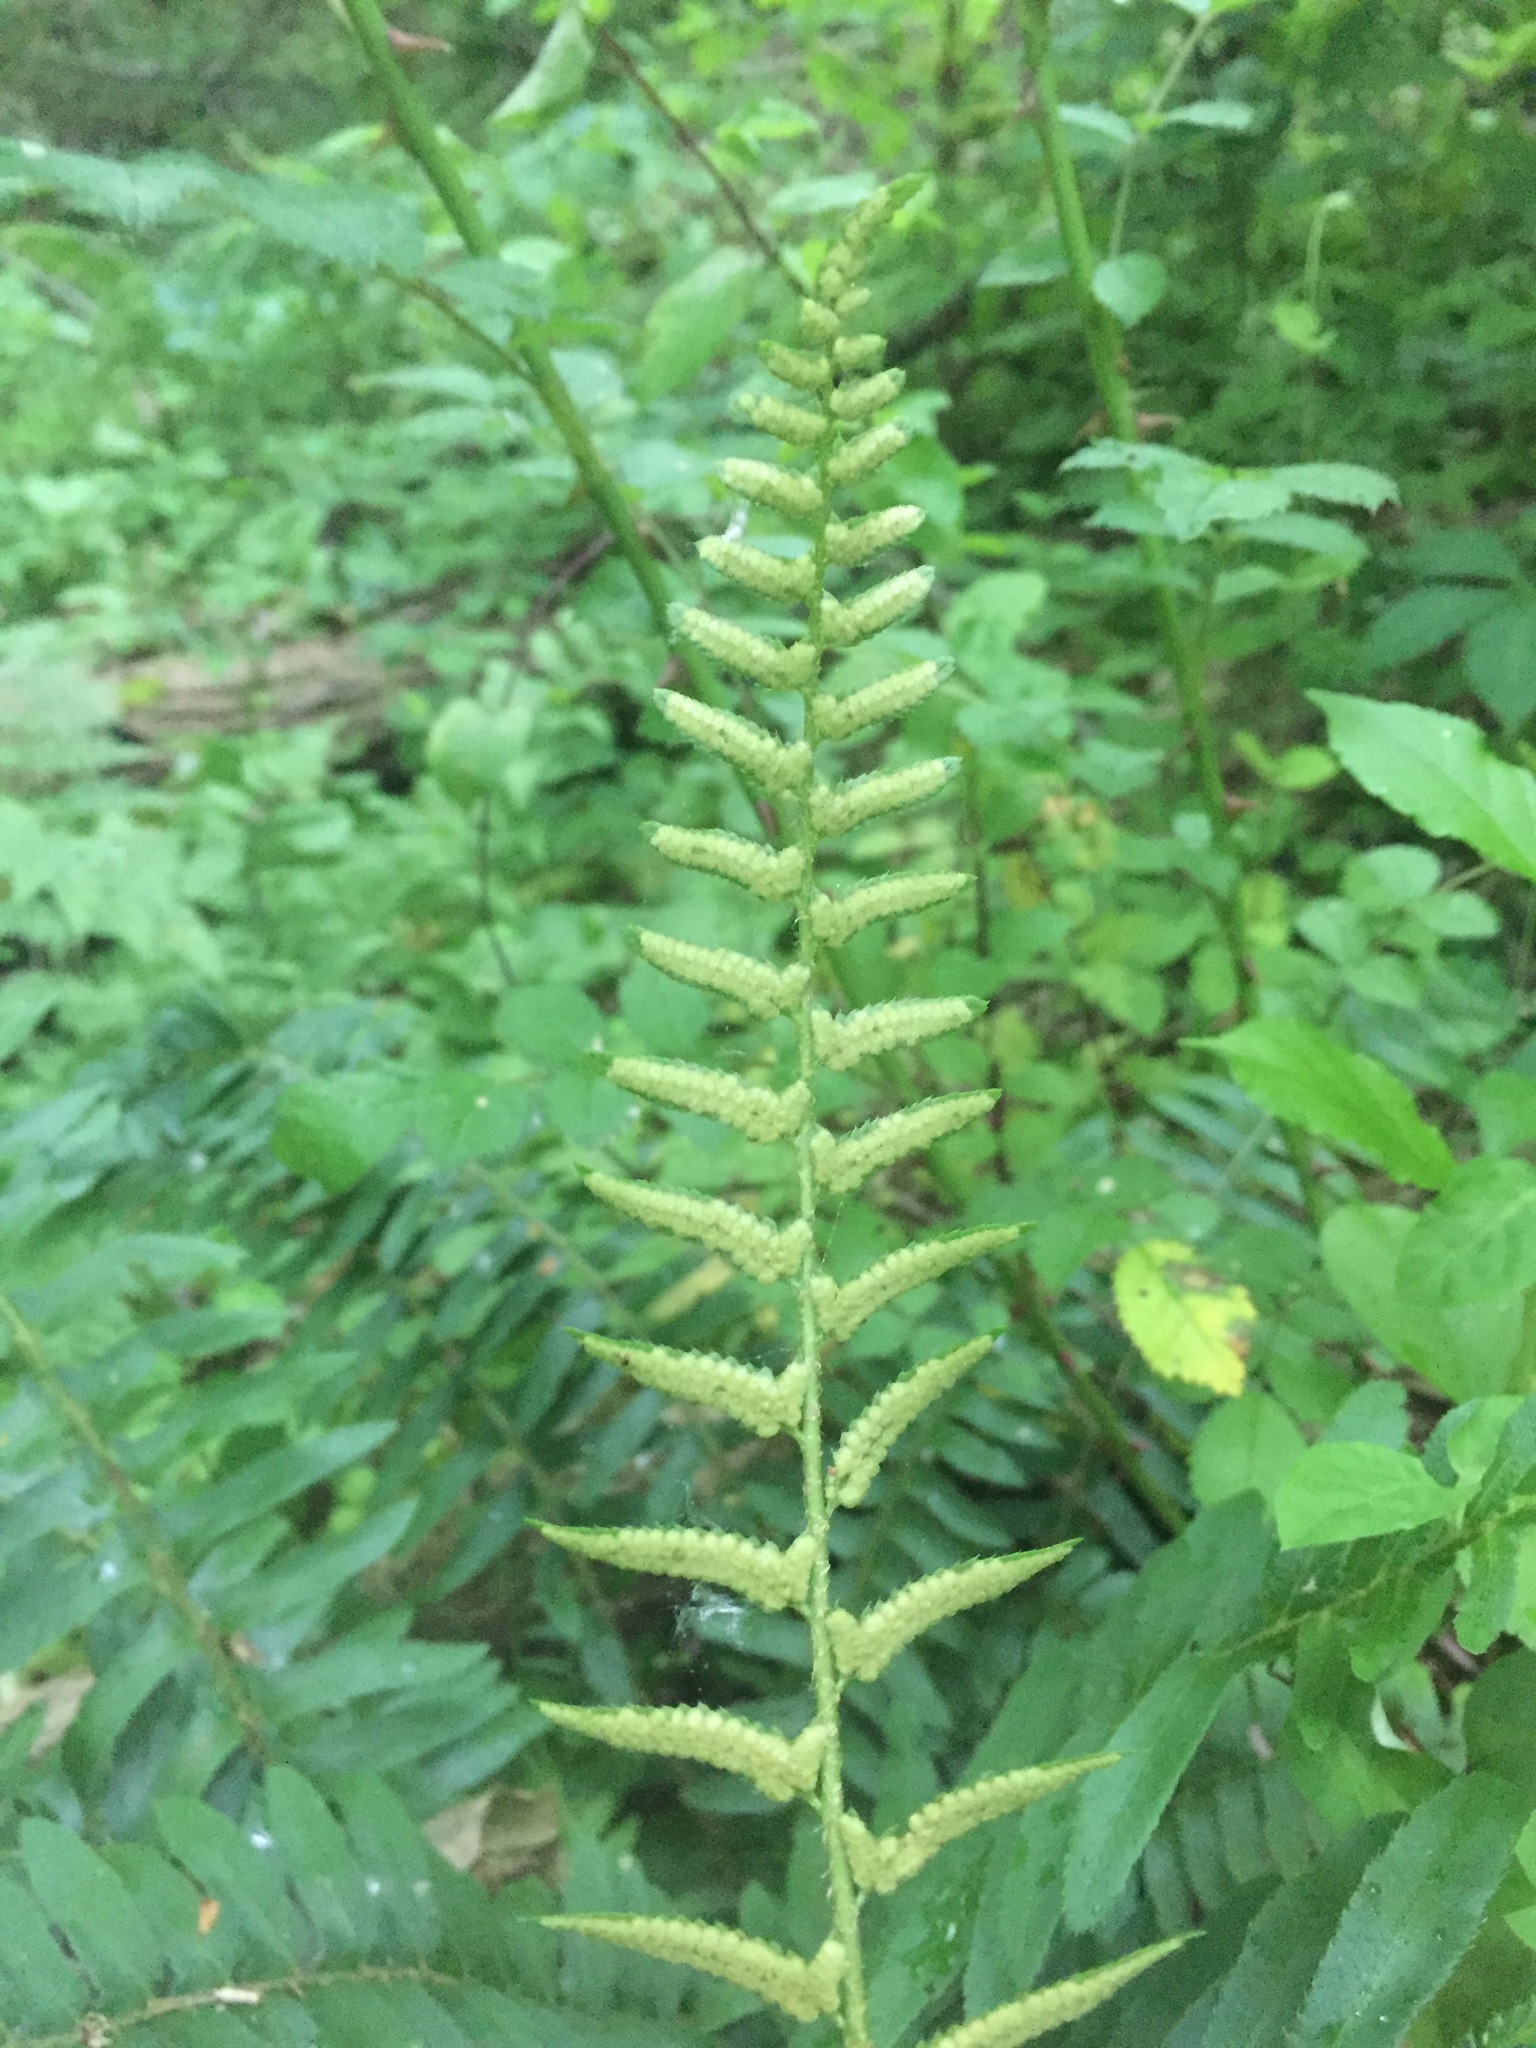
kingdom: Plantae
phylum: Tracheophyta
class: Polypodiopsida
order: Polypodiales
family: Dryopteridaceae
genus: Polystichum
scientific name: Polystichum acrostichoides
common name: Christmas fern
